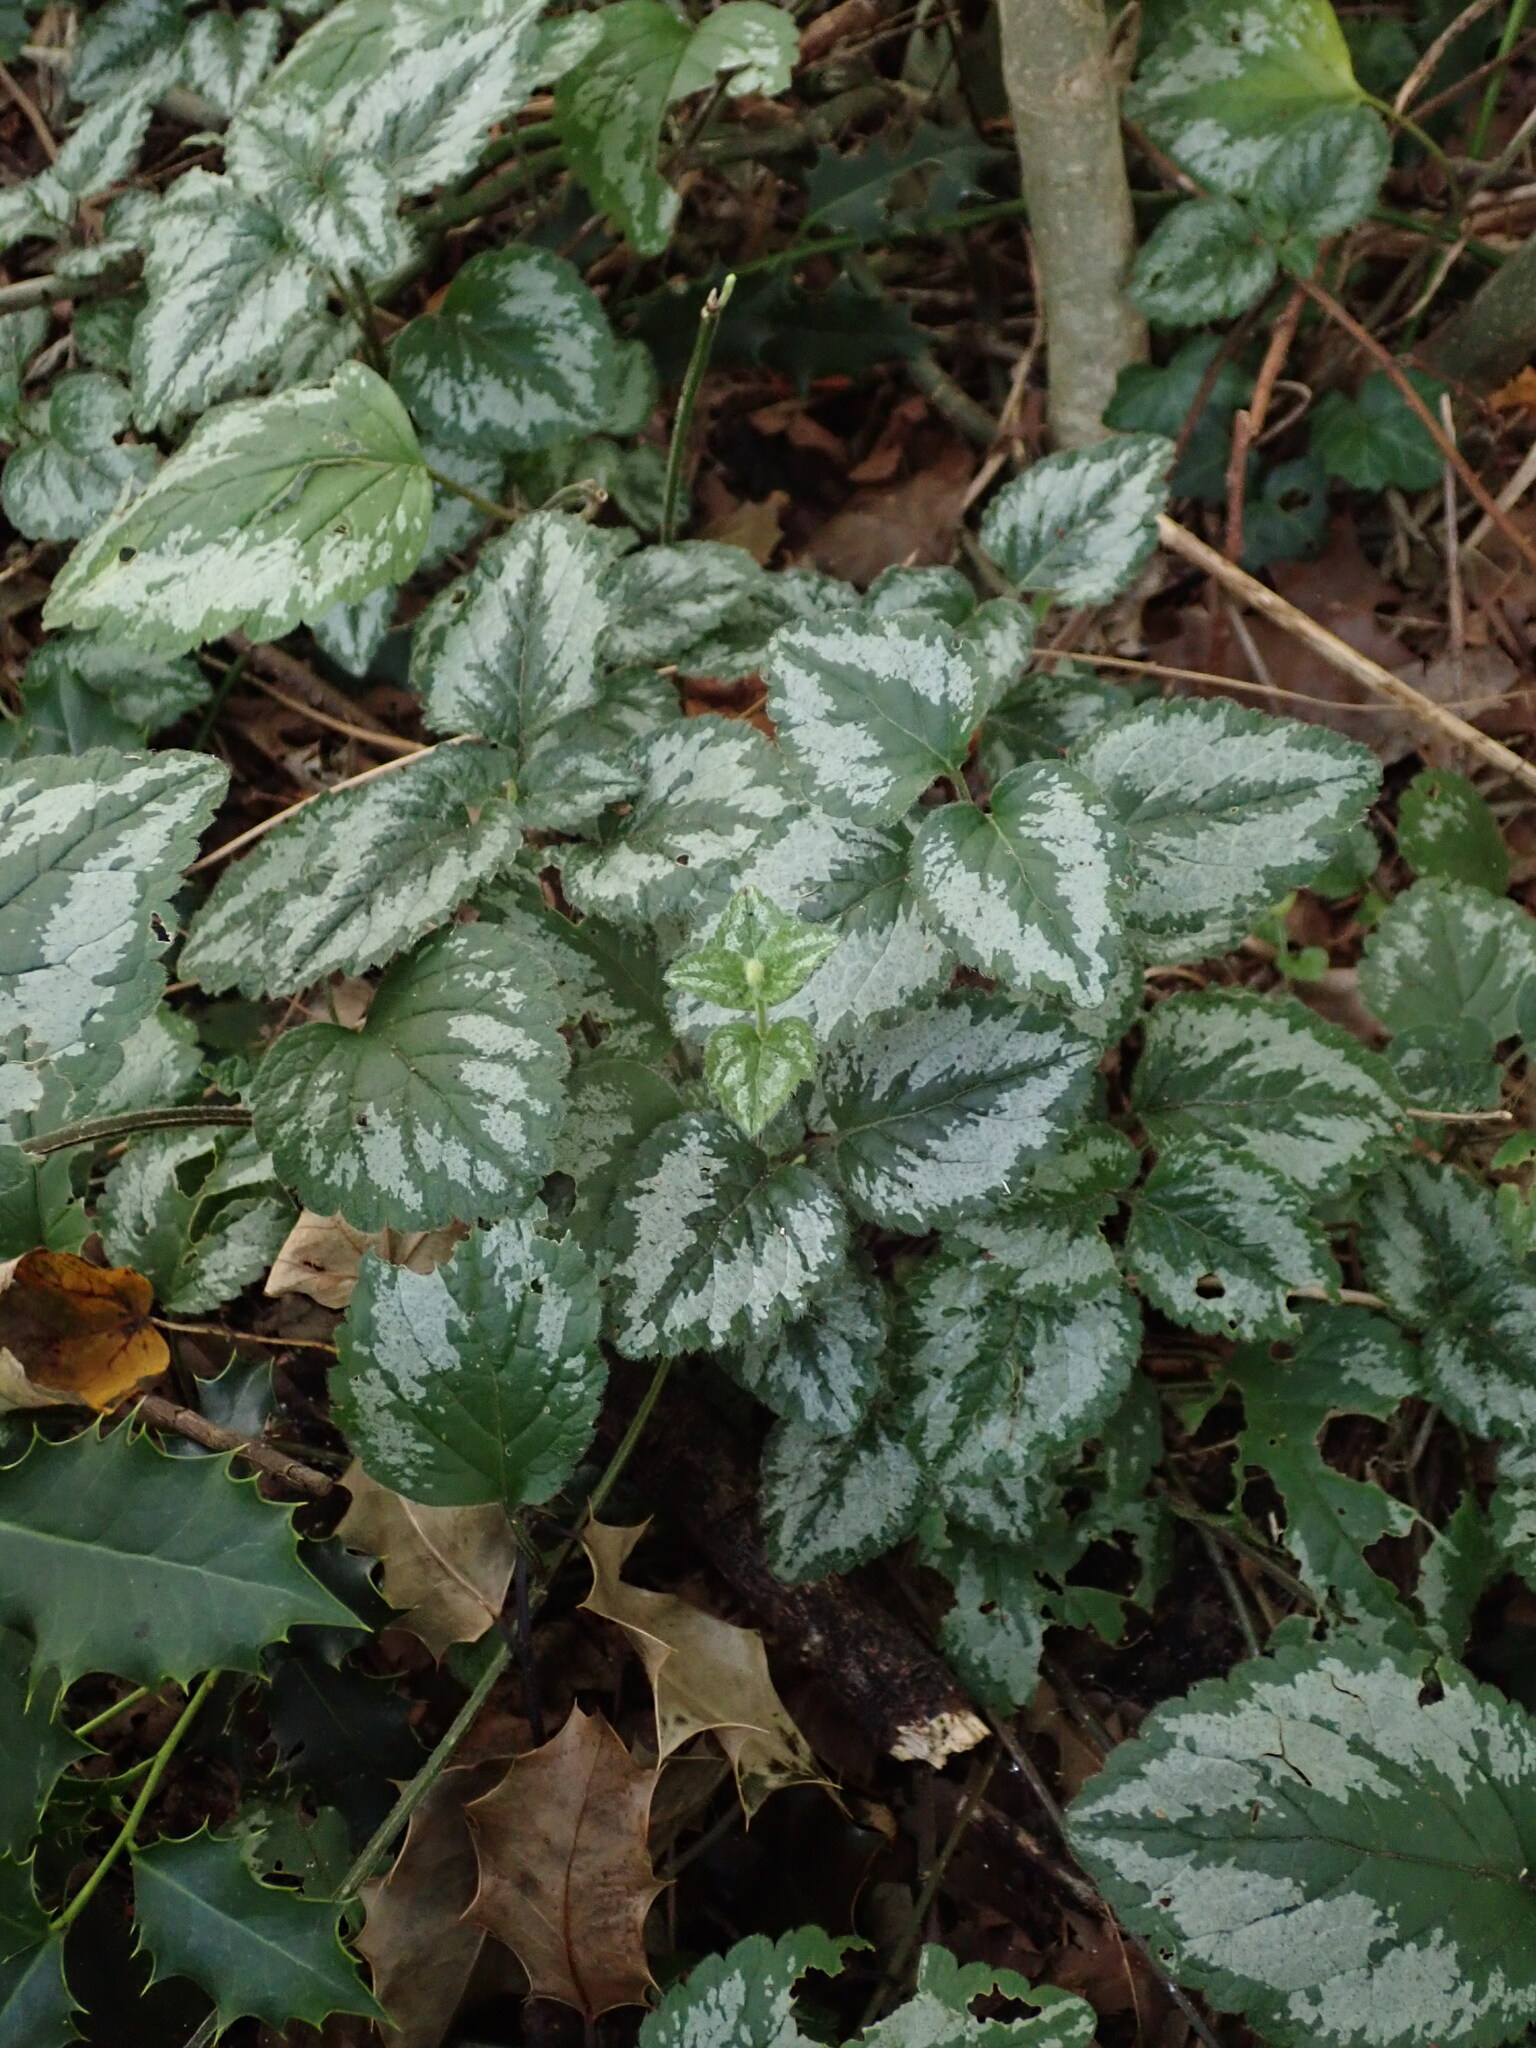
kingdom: Plantae
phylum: Tracheophyta
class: Magnoliopsida
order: Lamiales
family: Lamiaceae
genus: Lamium
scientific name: Lamium galeobdolon
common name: Yellow archangel
